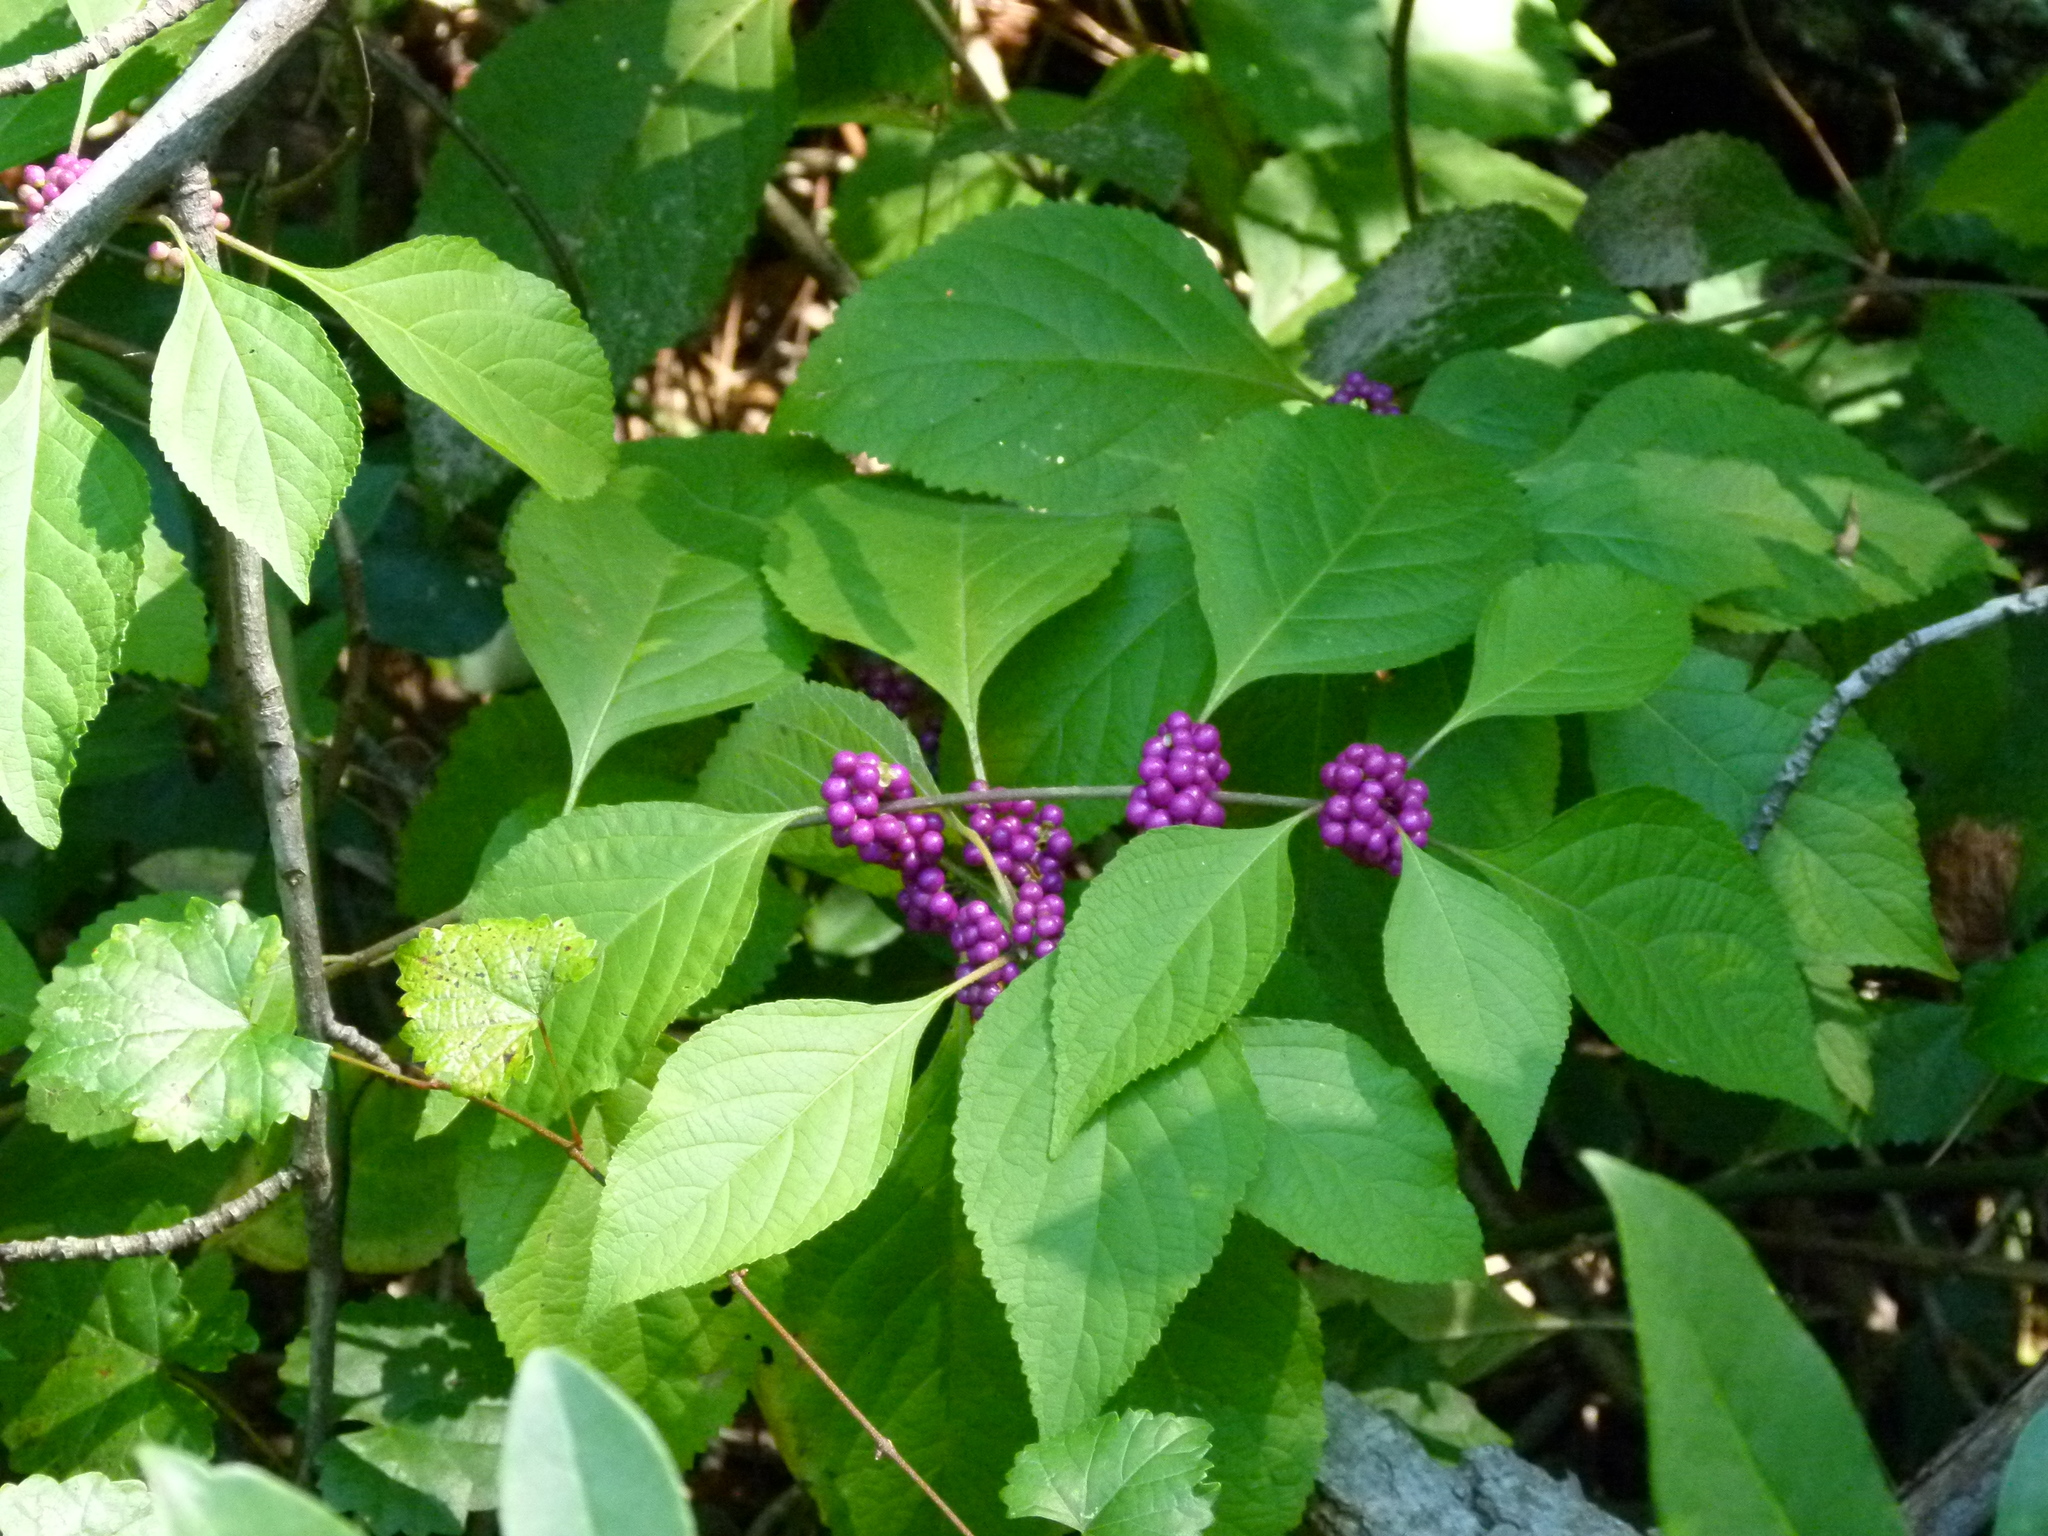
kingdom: Plantae
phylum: Tracheophyta
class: Magnoliopsida
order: Lamiales
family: Lamiaceae
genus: Callicarpa
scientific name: Callicarpa americana
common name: American beautyberry
